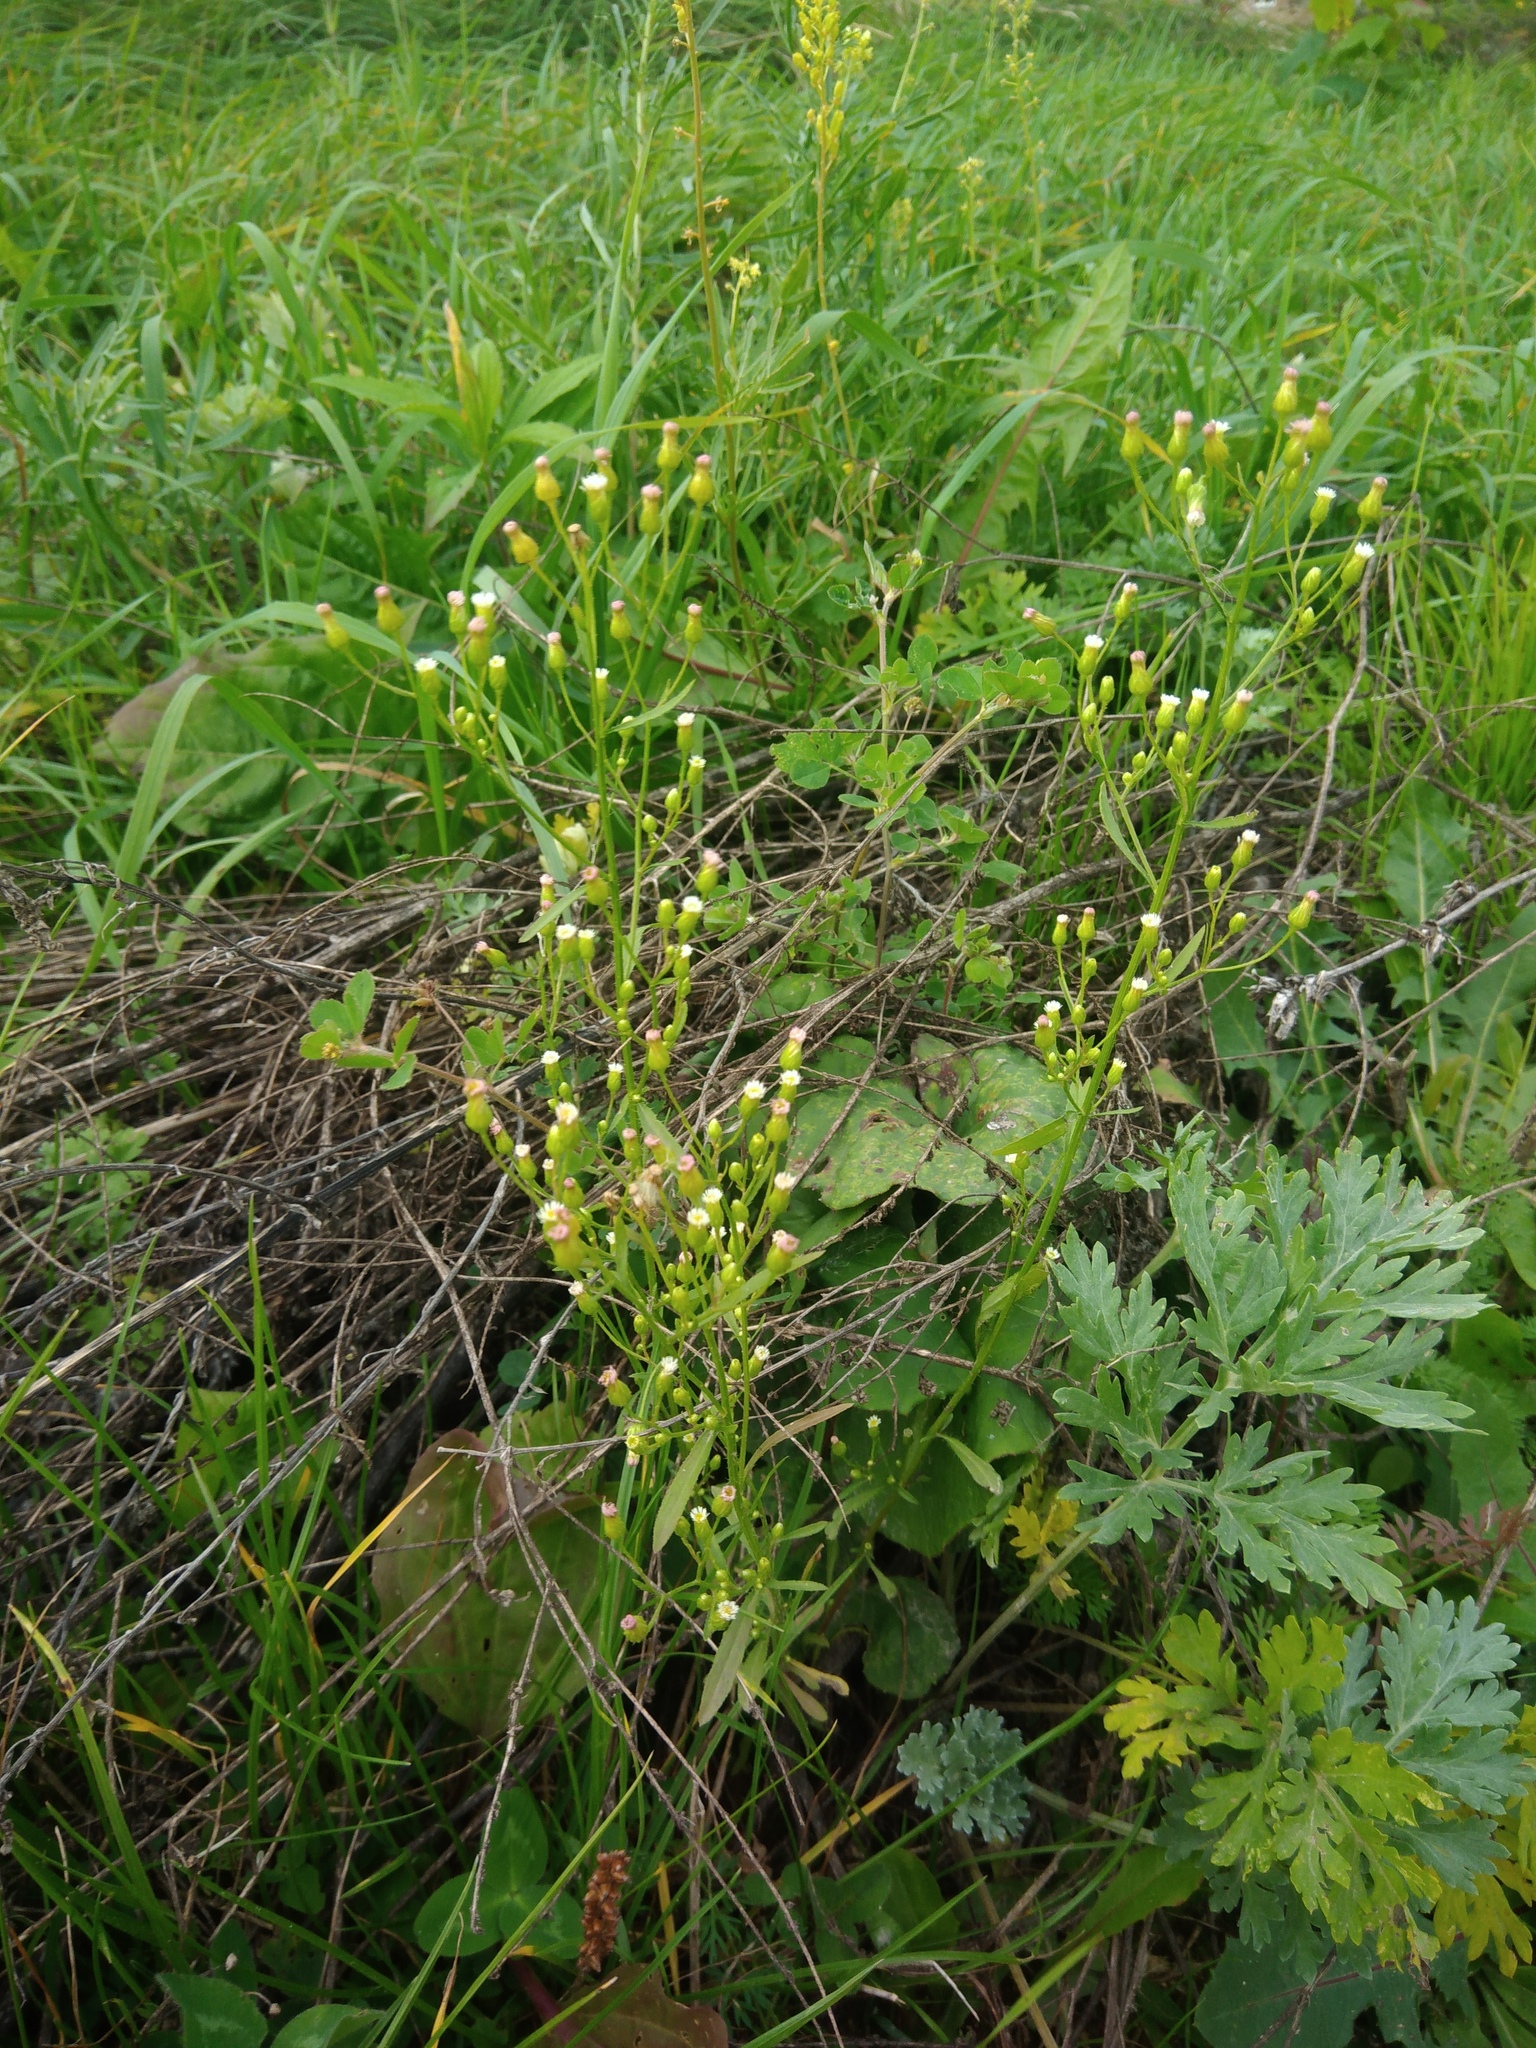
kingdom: Plantae
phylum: Tracheophyta
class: Magnoliopsida
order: Asterales
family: Asteraceae
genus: Erigeron
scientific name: Erigeron canadensis
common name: Canadian fleabane
